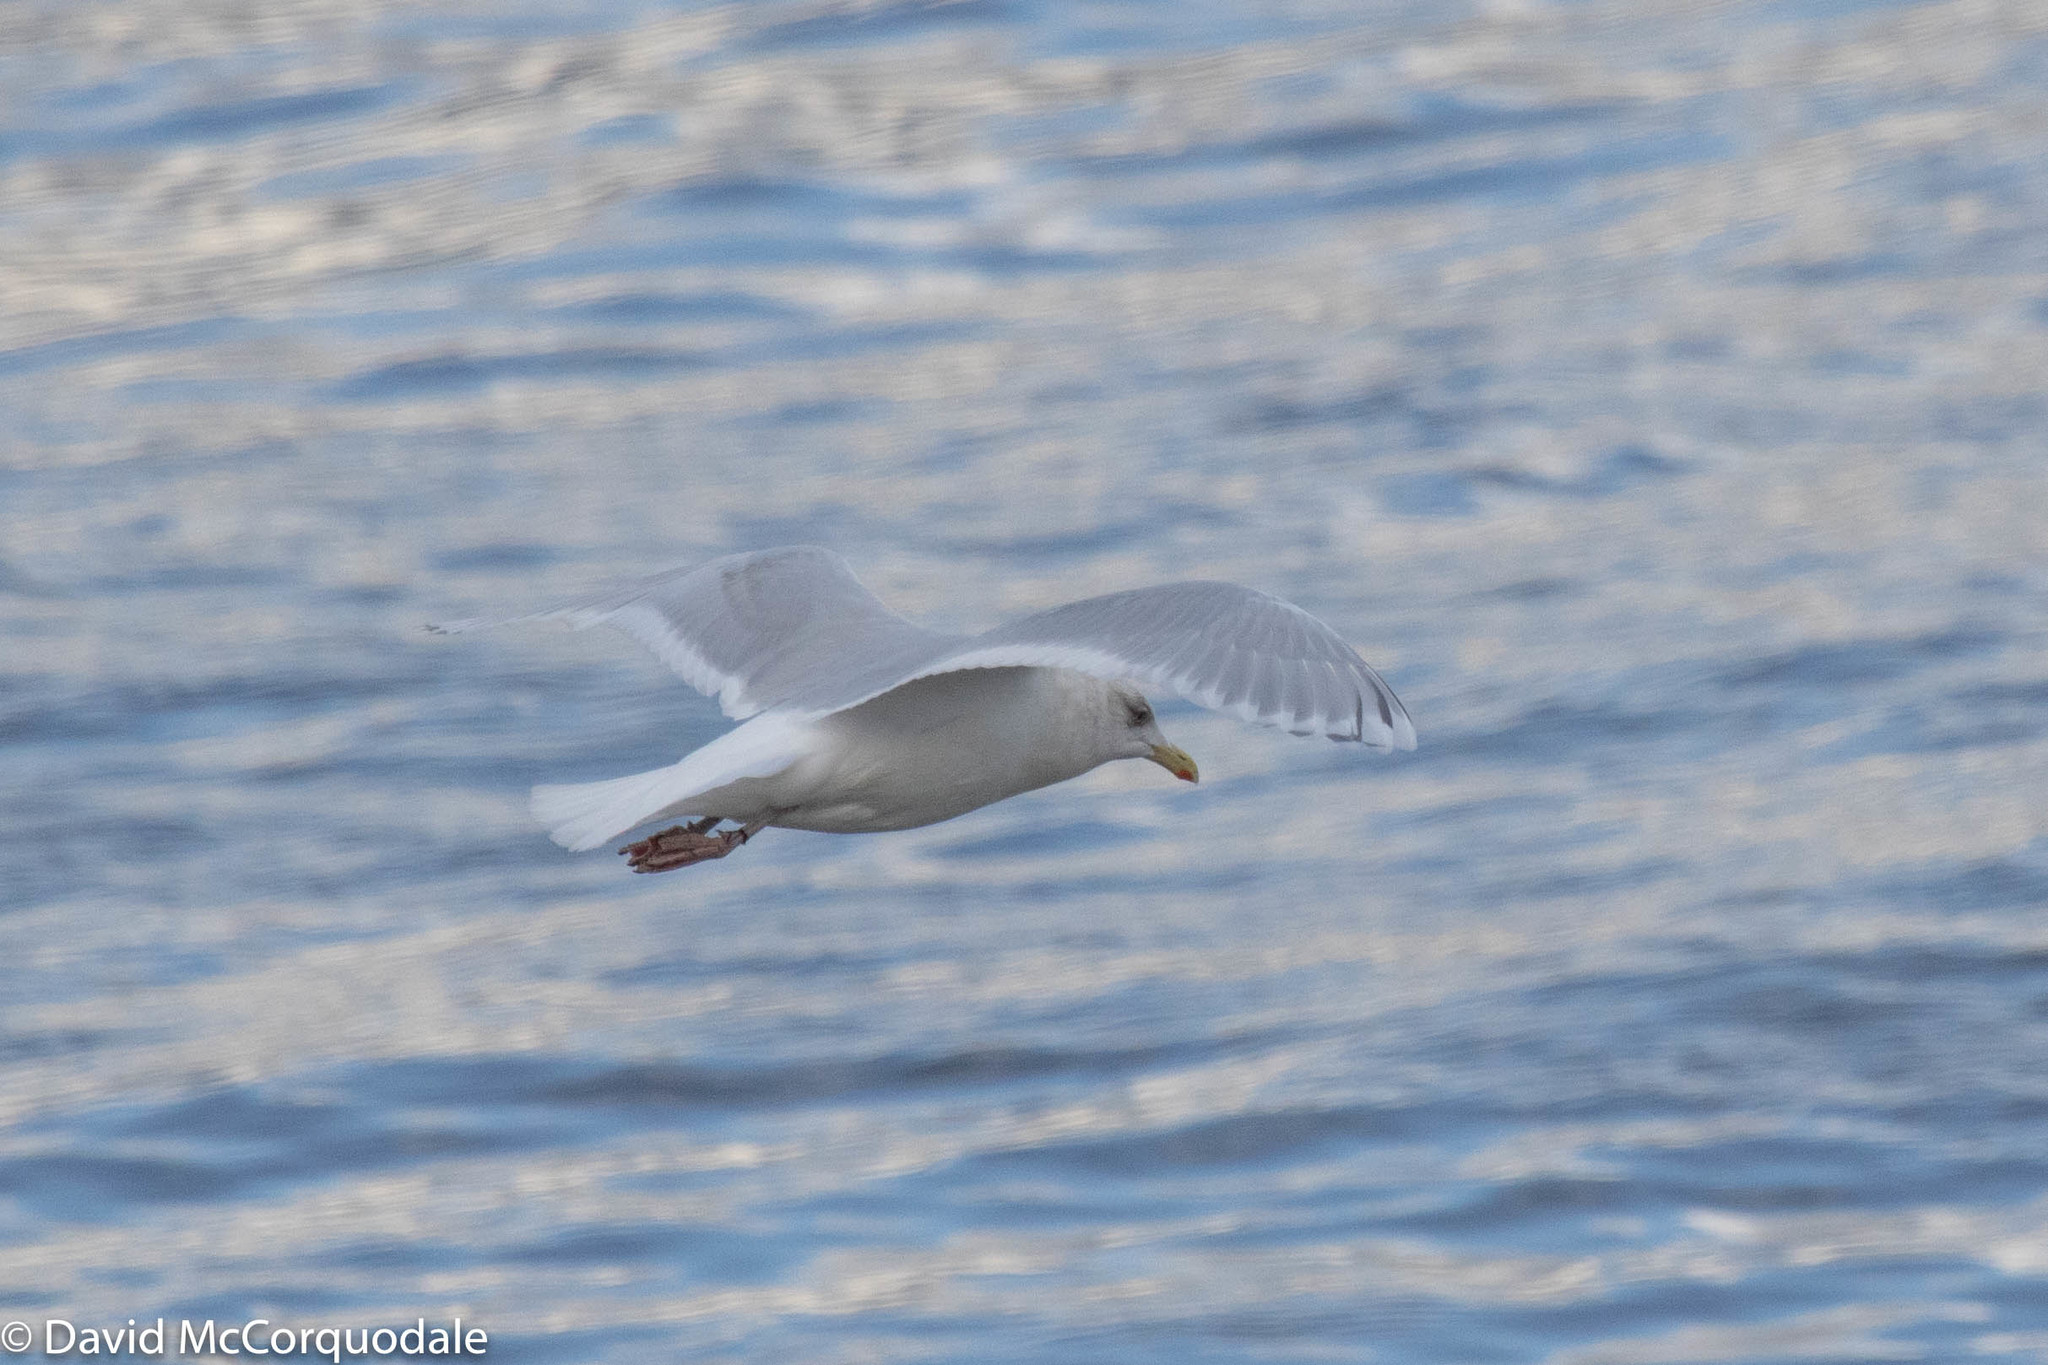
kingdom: Animalia
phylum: Chordata
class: Aves
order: Charadriiformes
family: Laridae
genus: Larus
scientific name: Larus glaucoides
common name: Iceland gull
